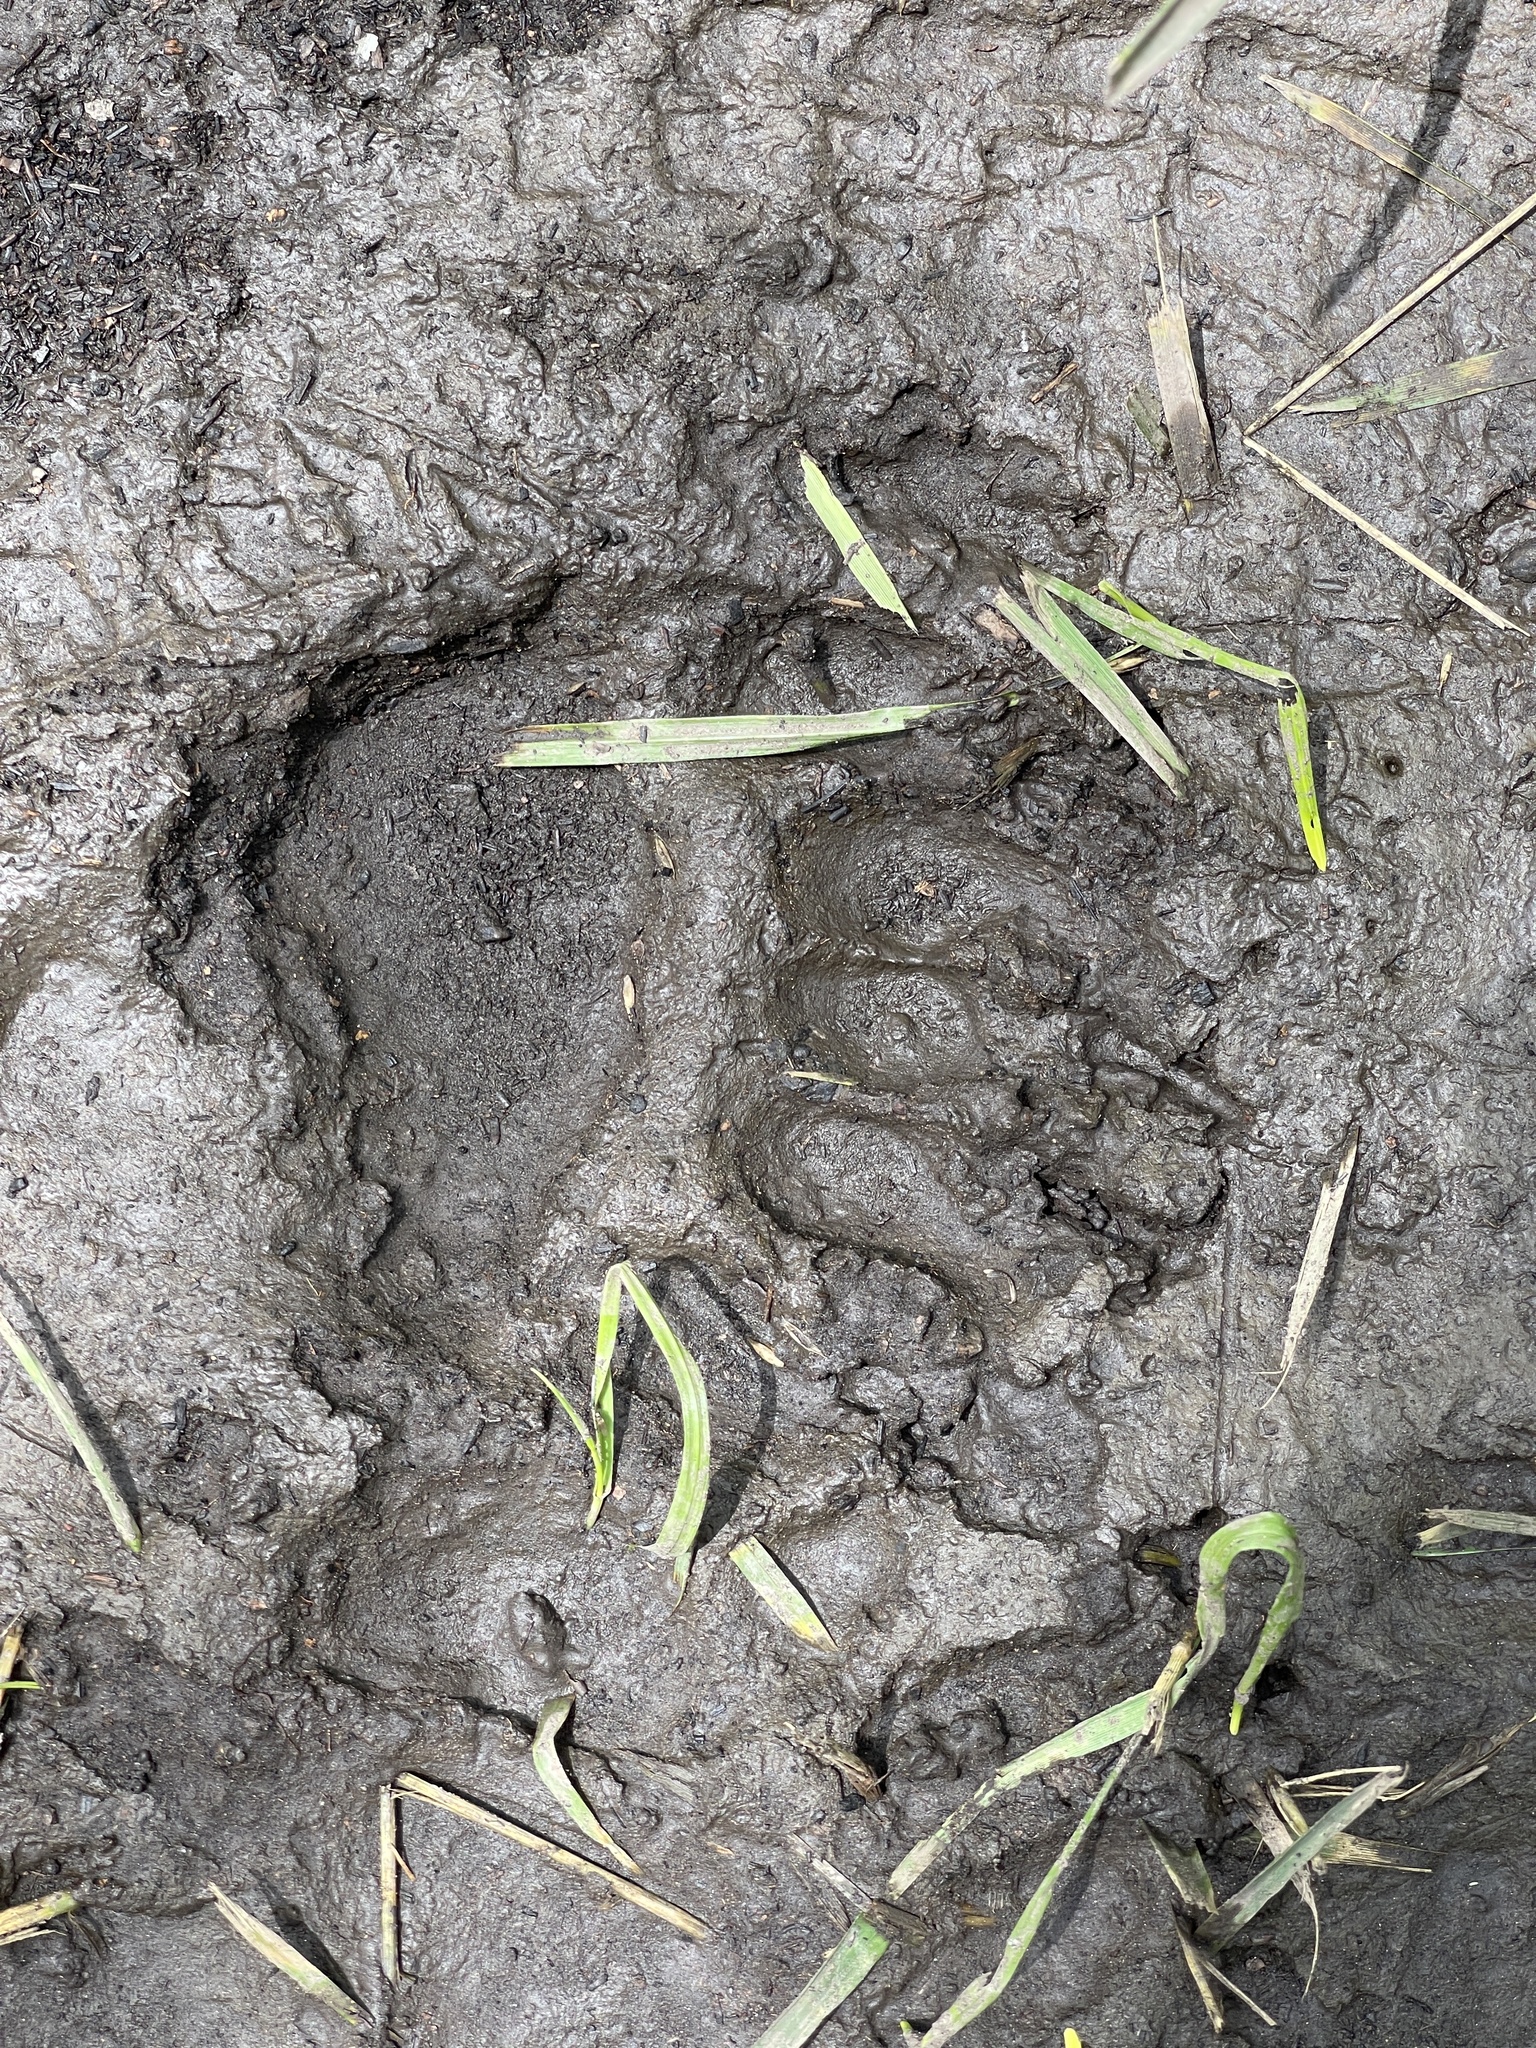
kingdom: Animalia
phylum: Chordata
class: Mammalia
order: Carnivora
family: Ursidae
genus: Ursus
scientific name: Ursus americanus
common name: American black bear
